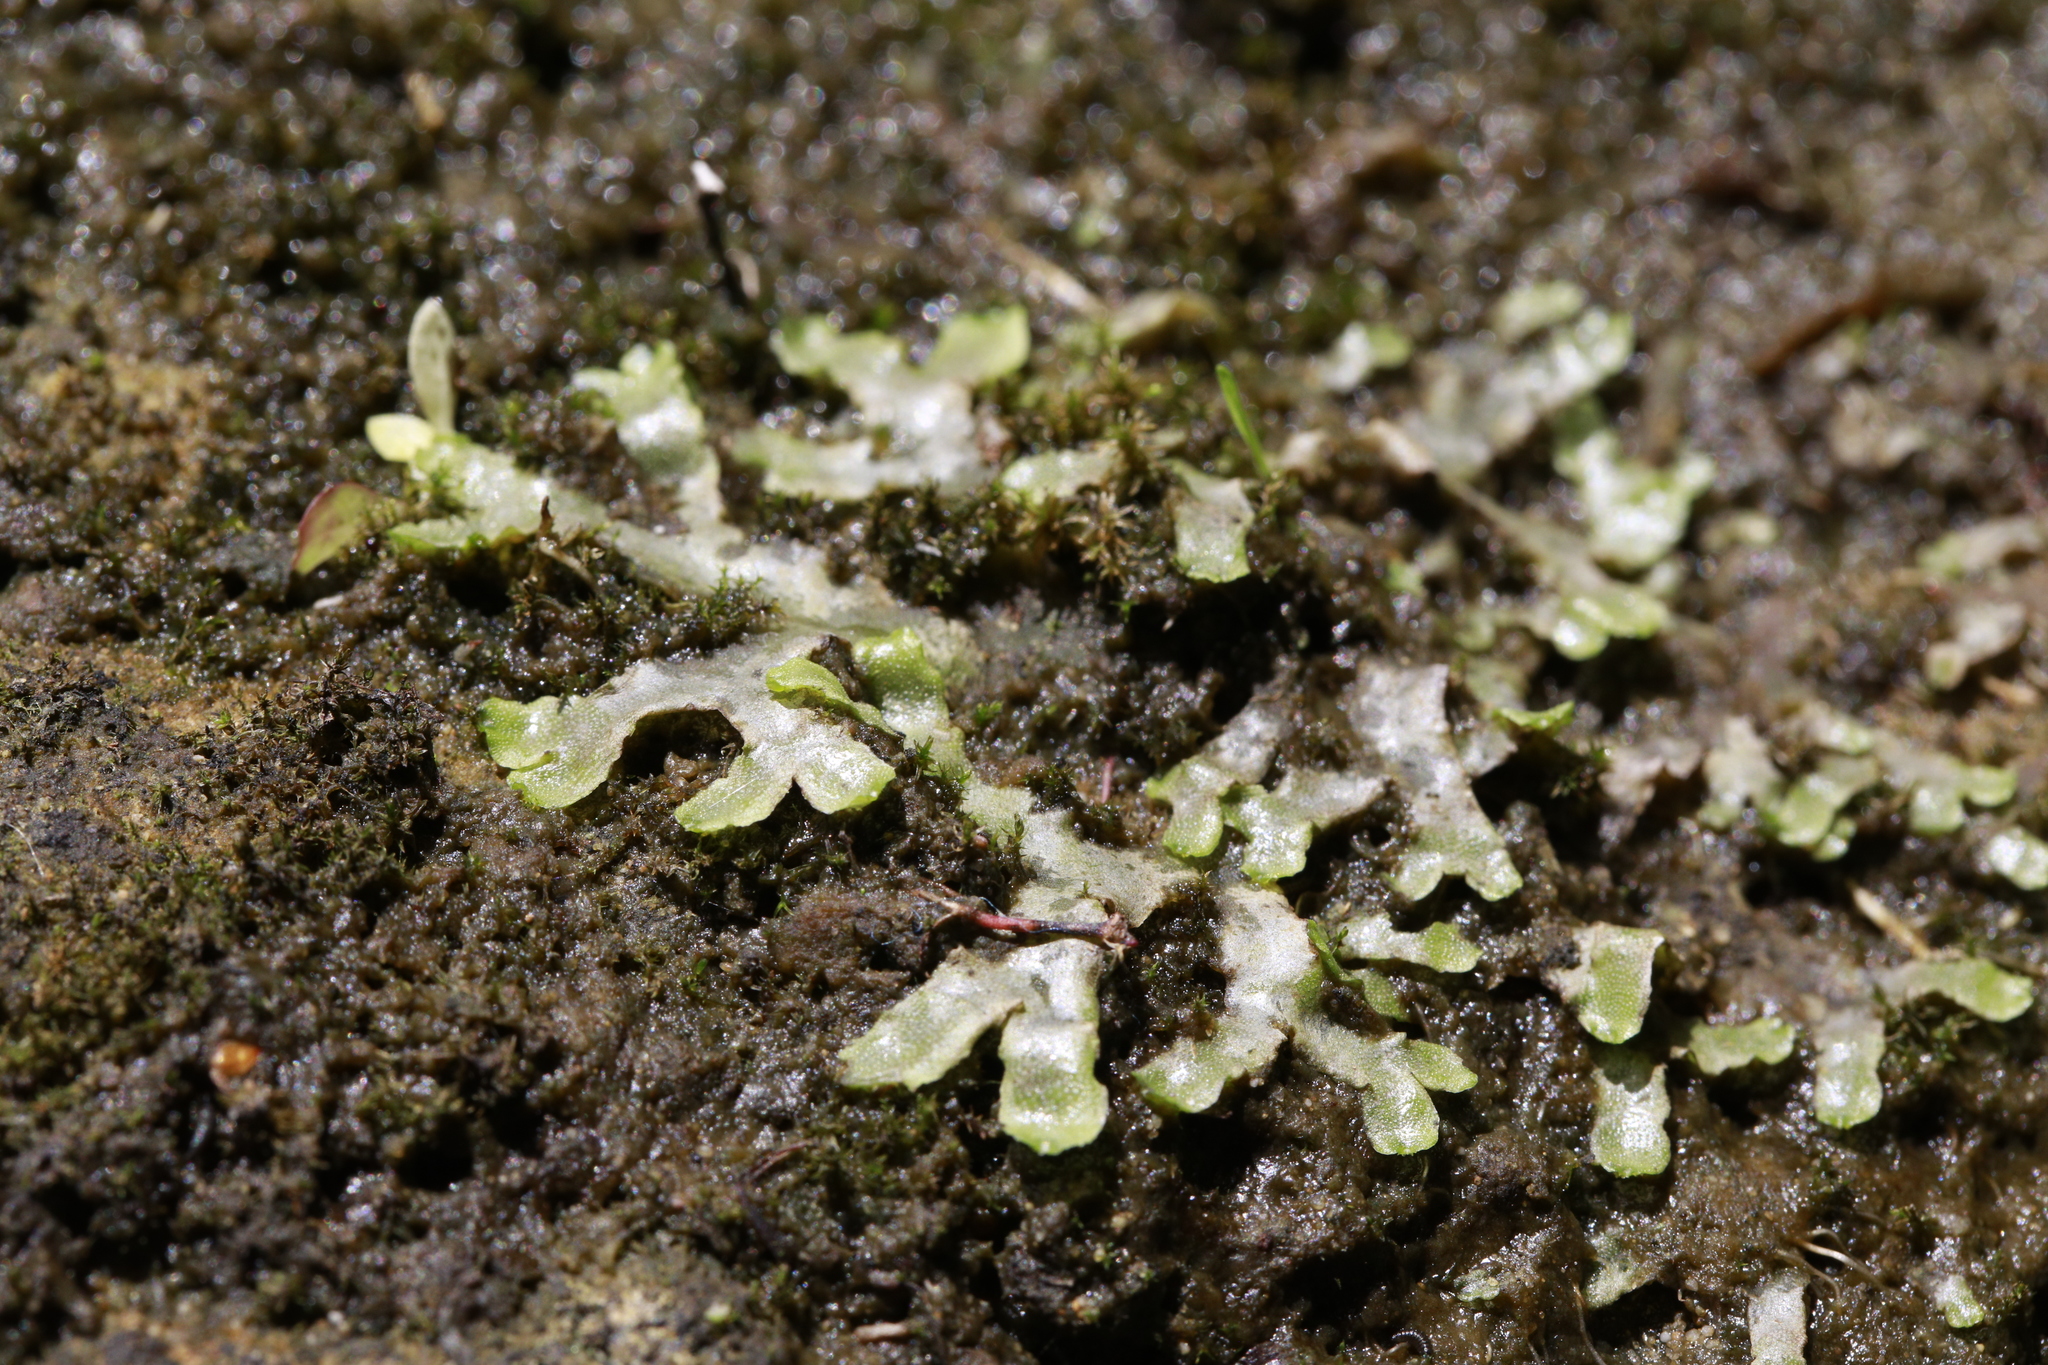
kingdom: Plantae
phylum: Marchantiophyta
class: Marchantiopsida
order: Marchantiales
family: Conocephalaceae
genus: Conocephalum
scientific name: Conocephalum conicum
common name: Great scented liverwort
